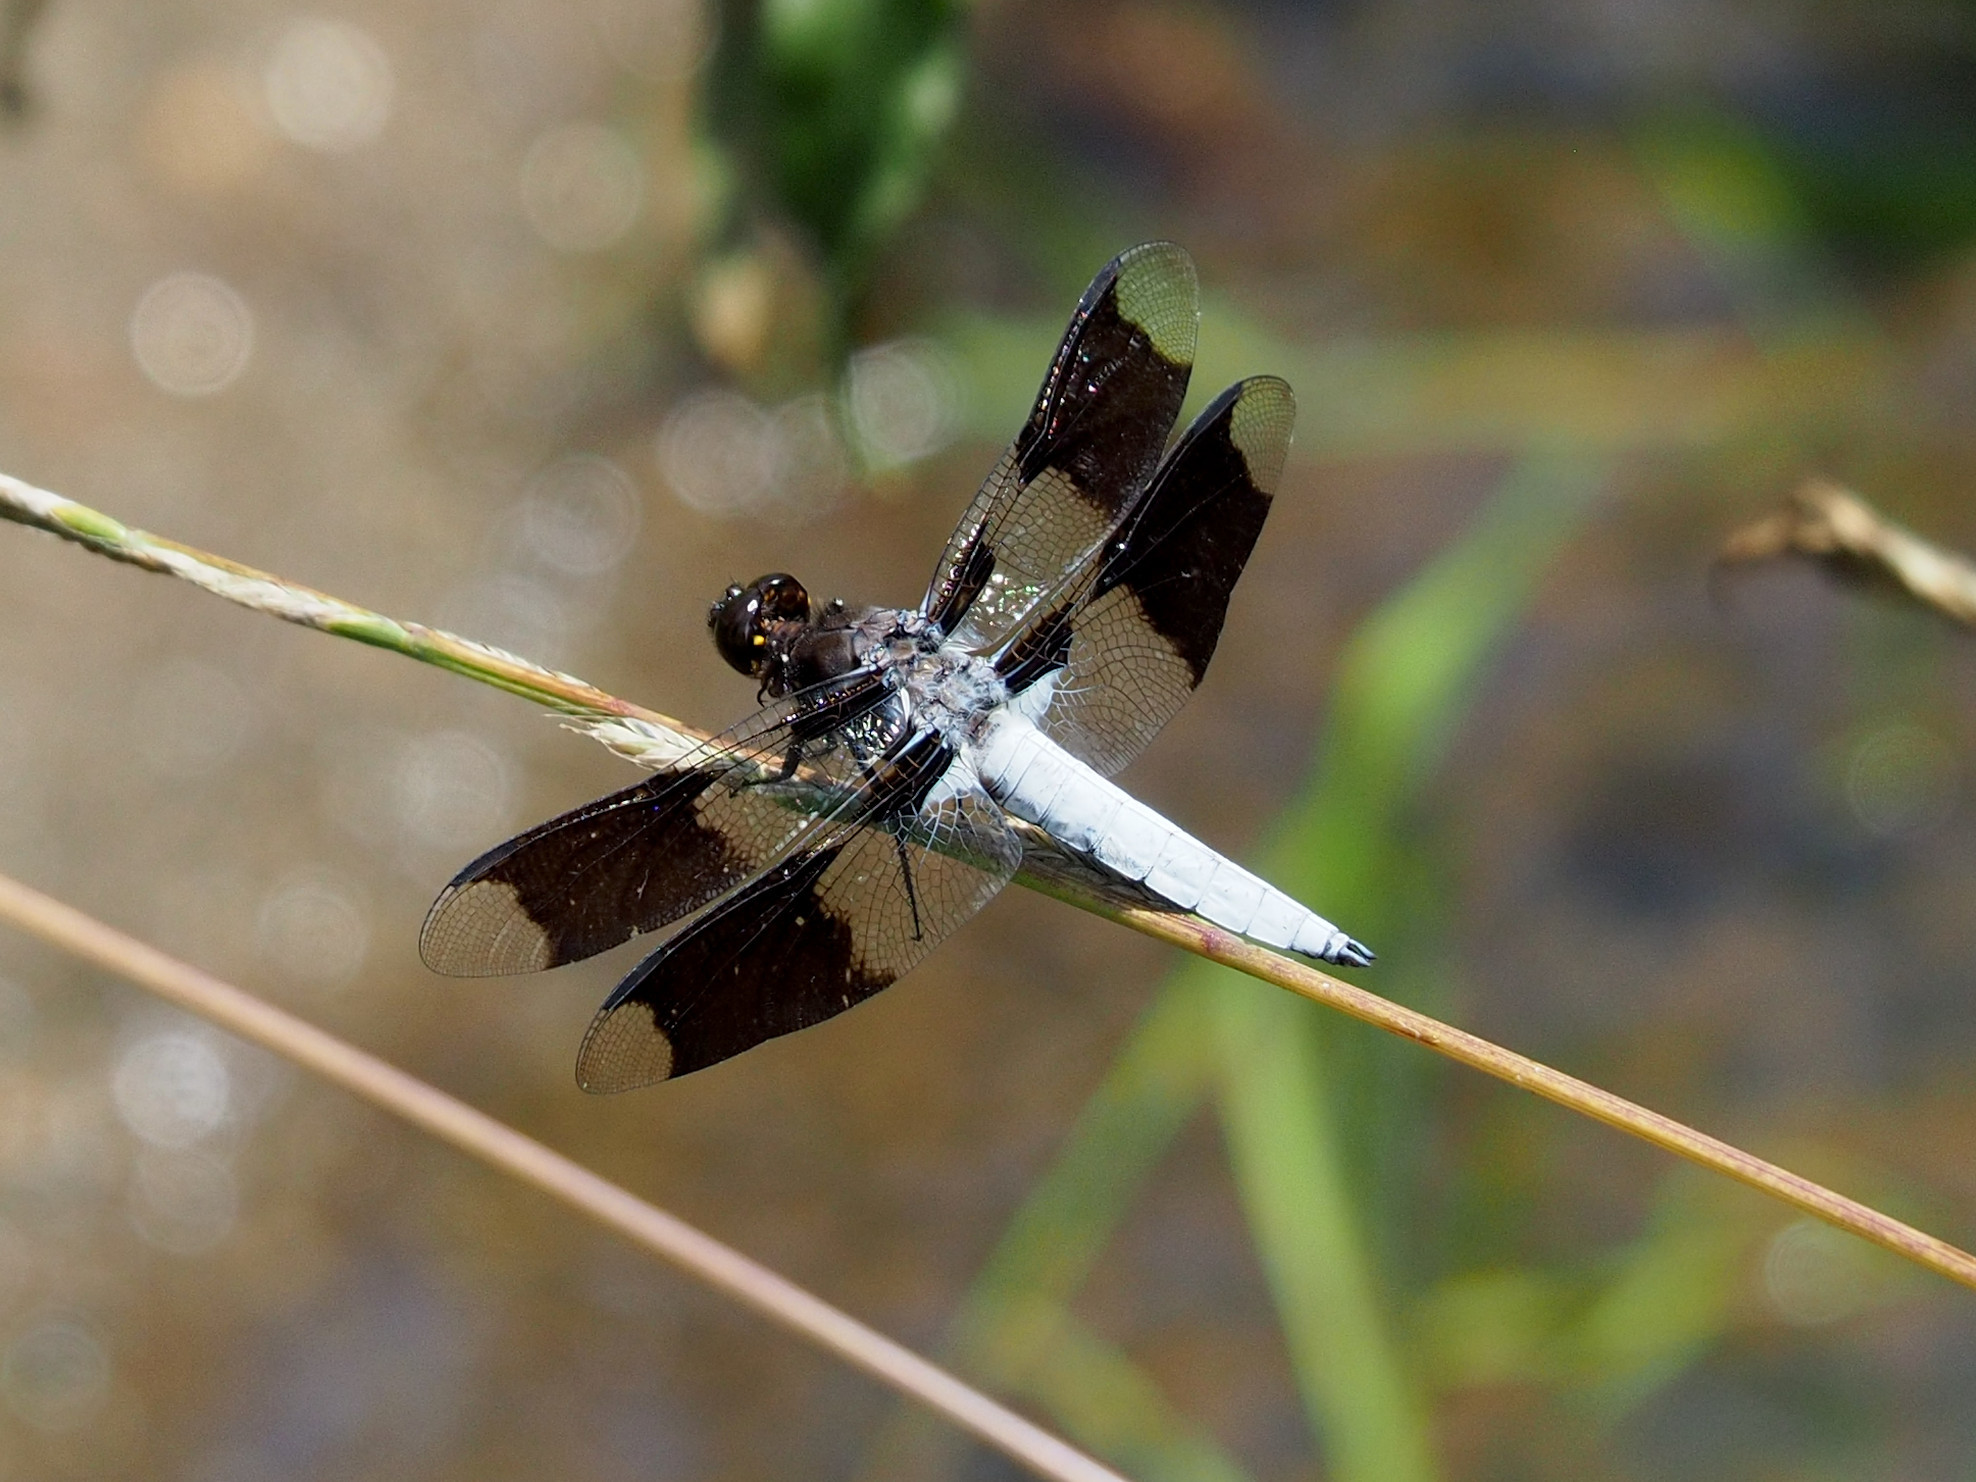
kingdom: Animalia
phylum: Arthropoda
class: Insecta
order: Odonata
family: Libellulidae
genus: Plathemis
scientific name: Plathemis lydia
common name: Common whitetail
